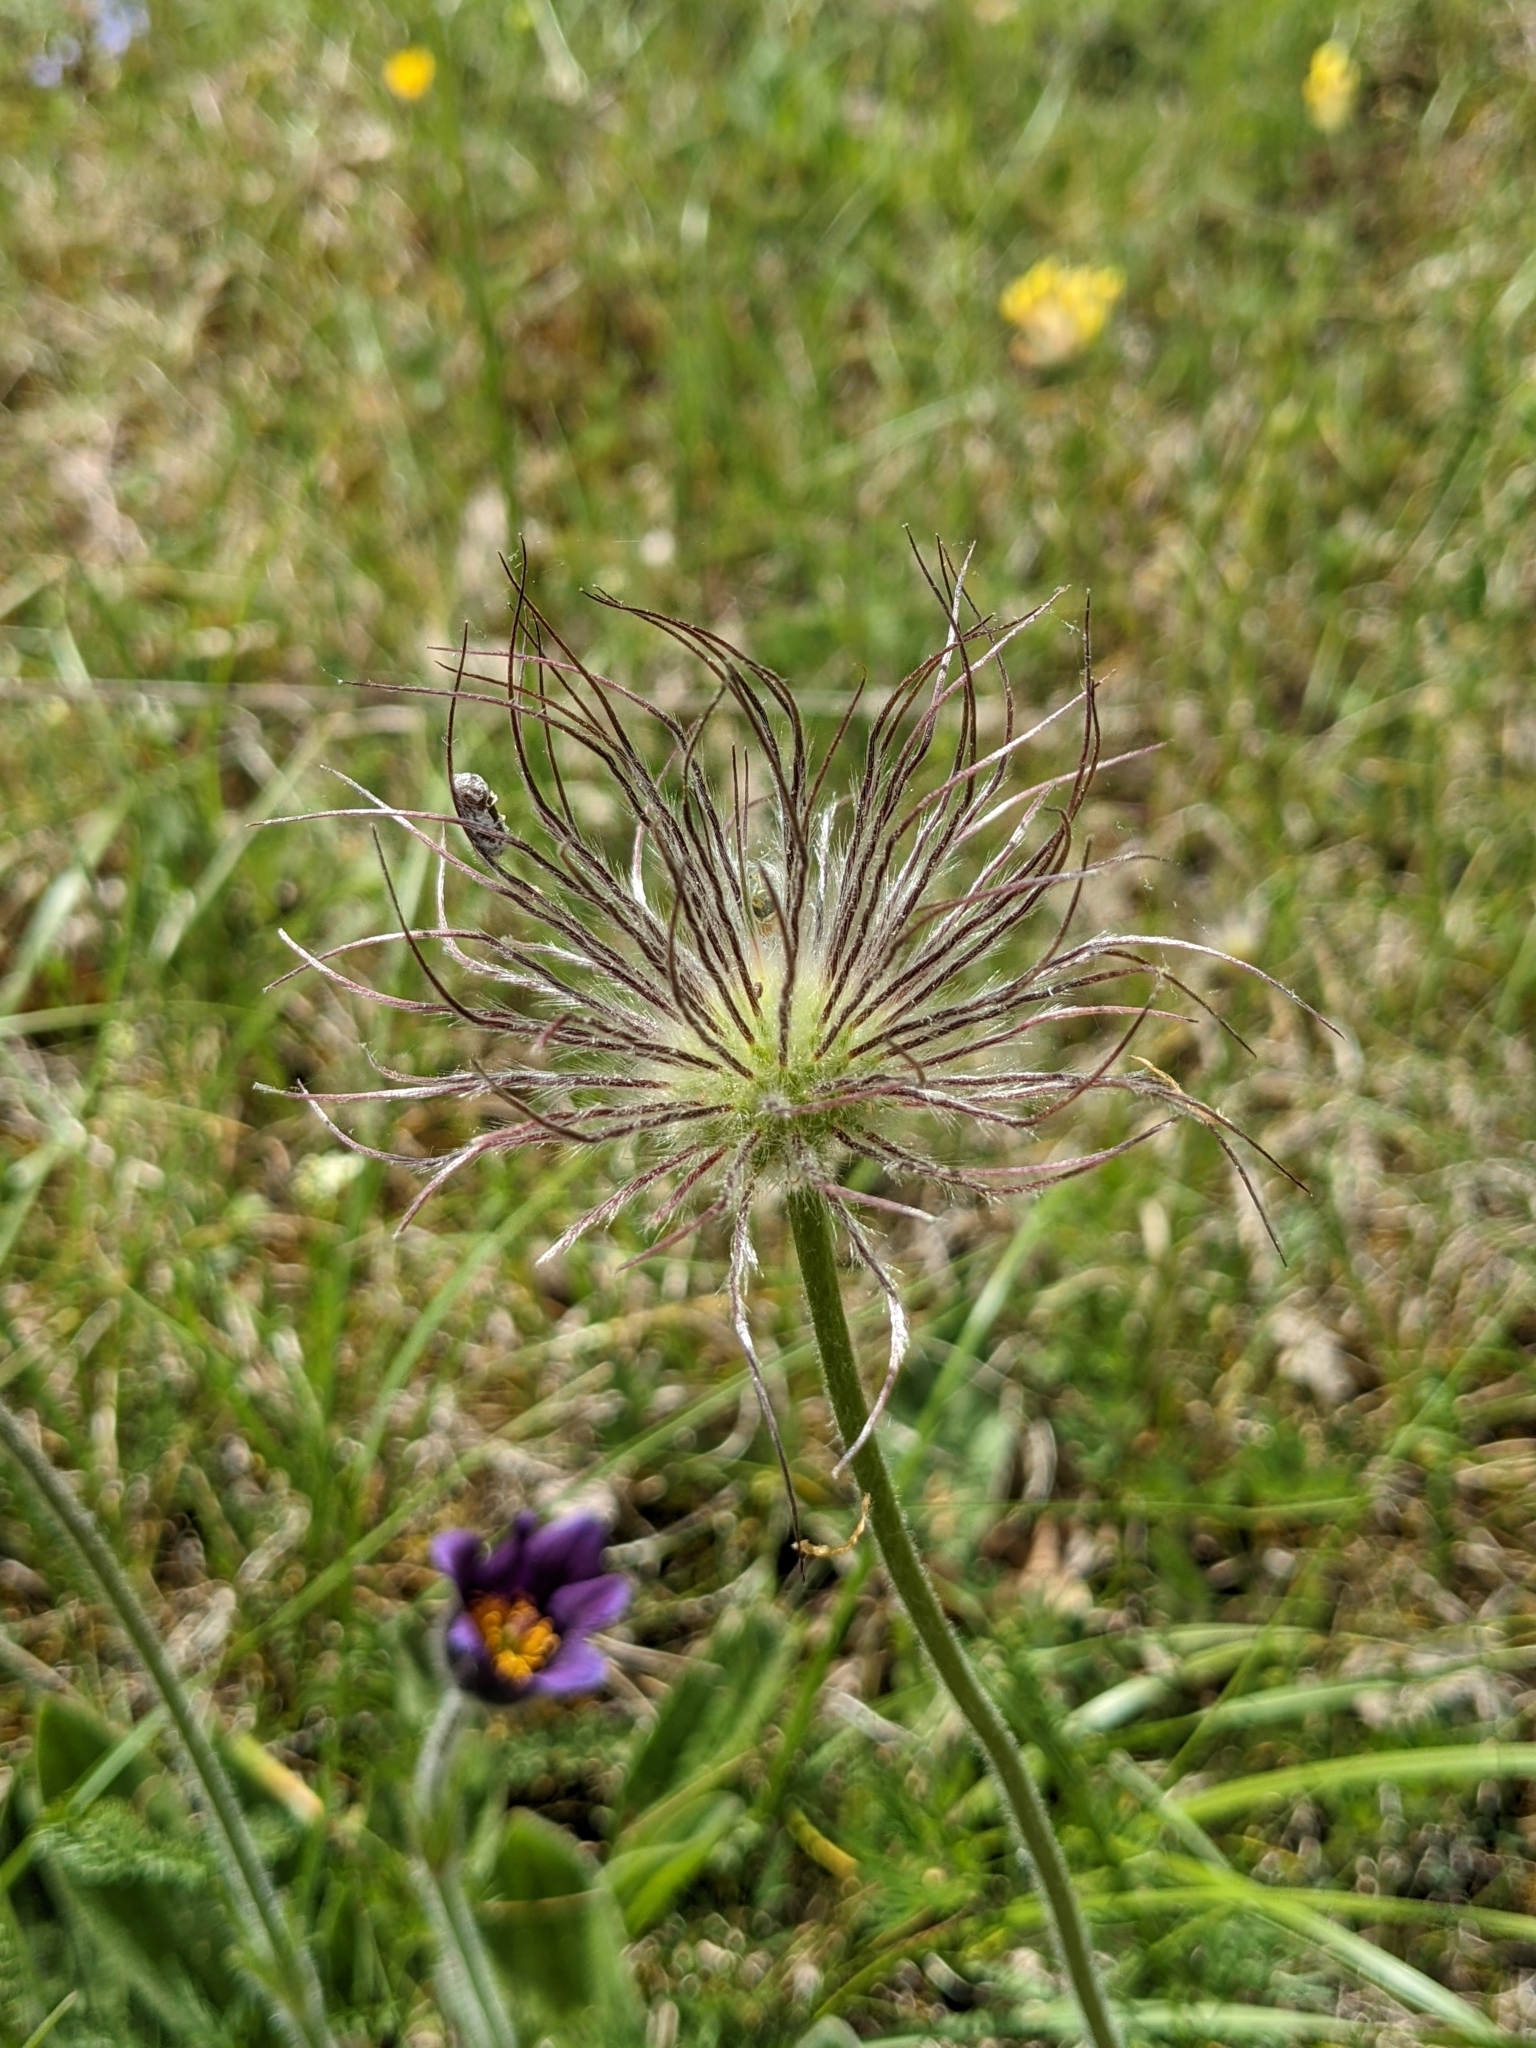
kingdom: Plantae
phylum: Tracheophyta
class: Magnoliopsida
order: Ranunculales
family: Ranunculaceae
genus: Pulsatilla
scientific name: Pulsatilla vulgaris
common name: Pasqueflower
